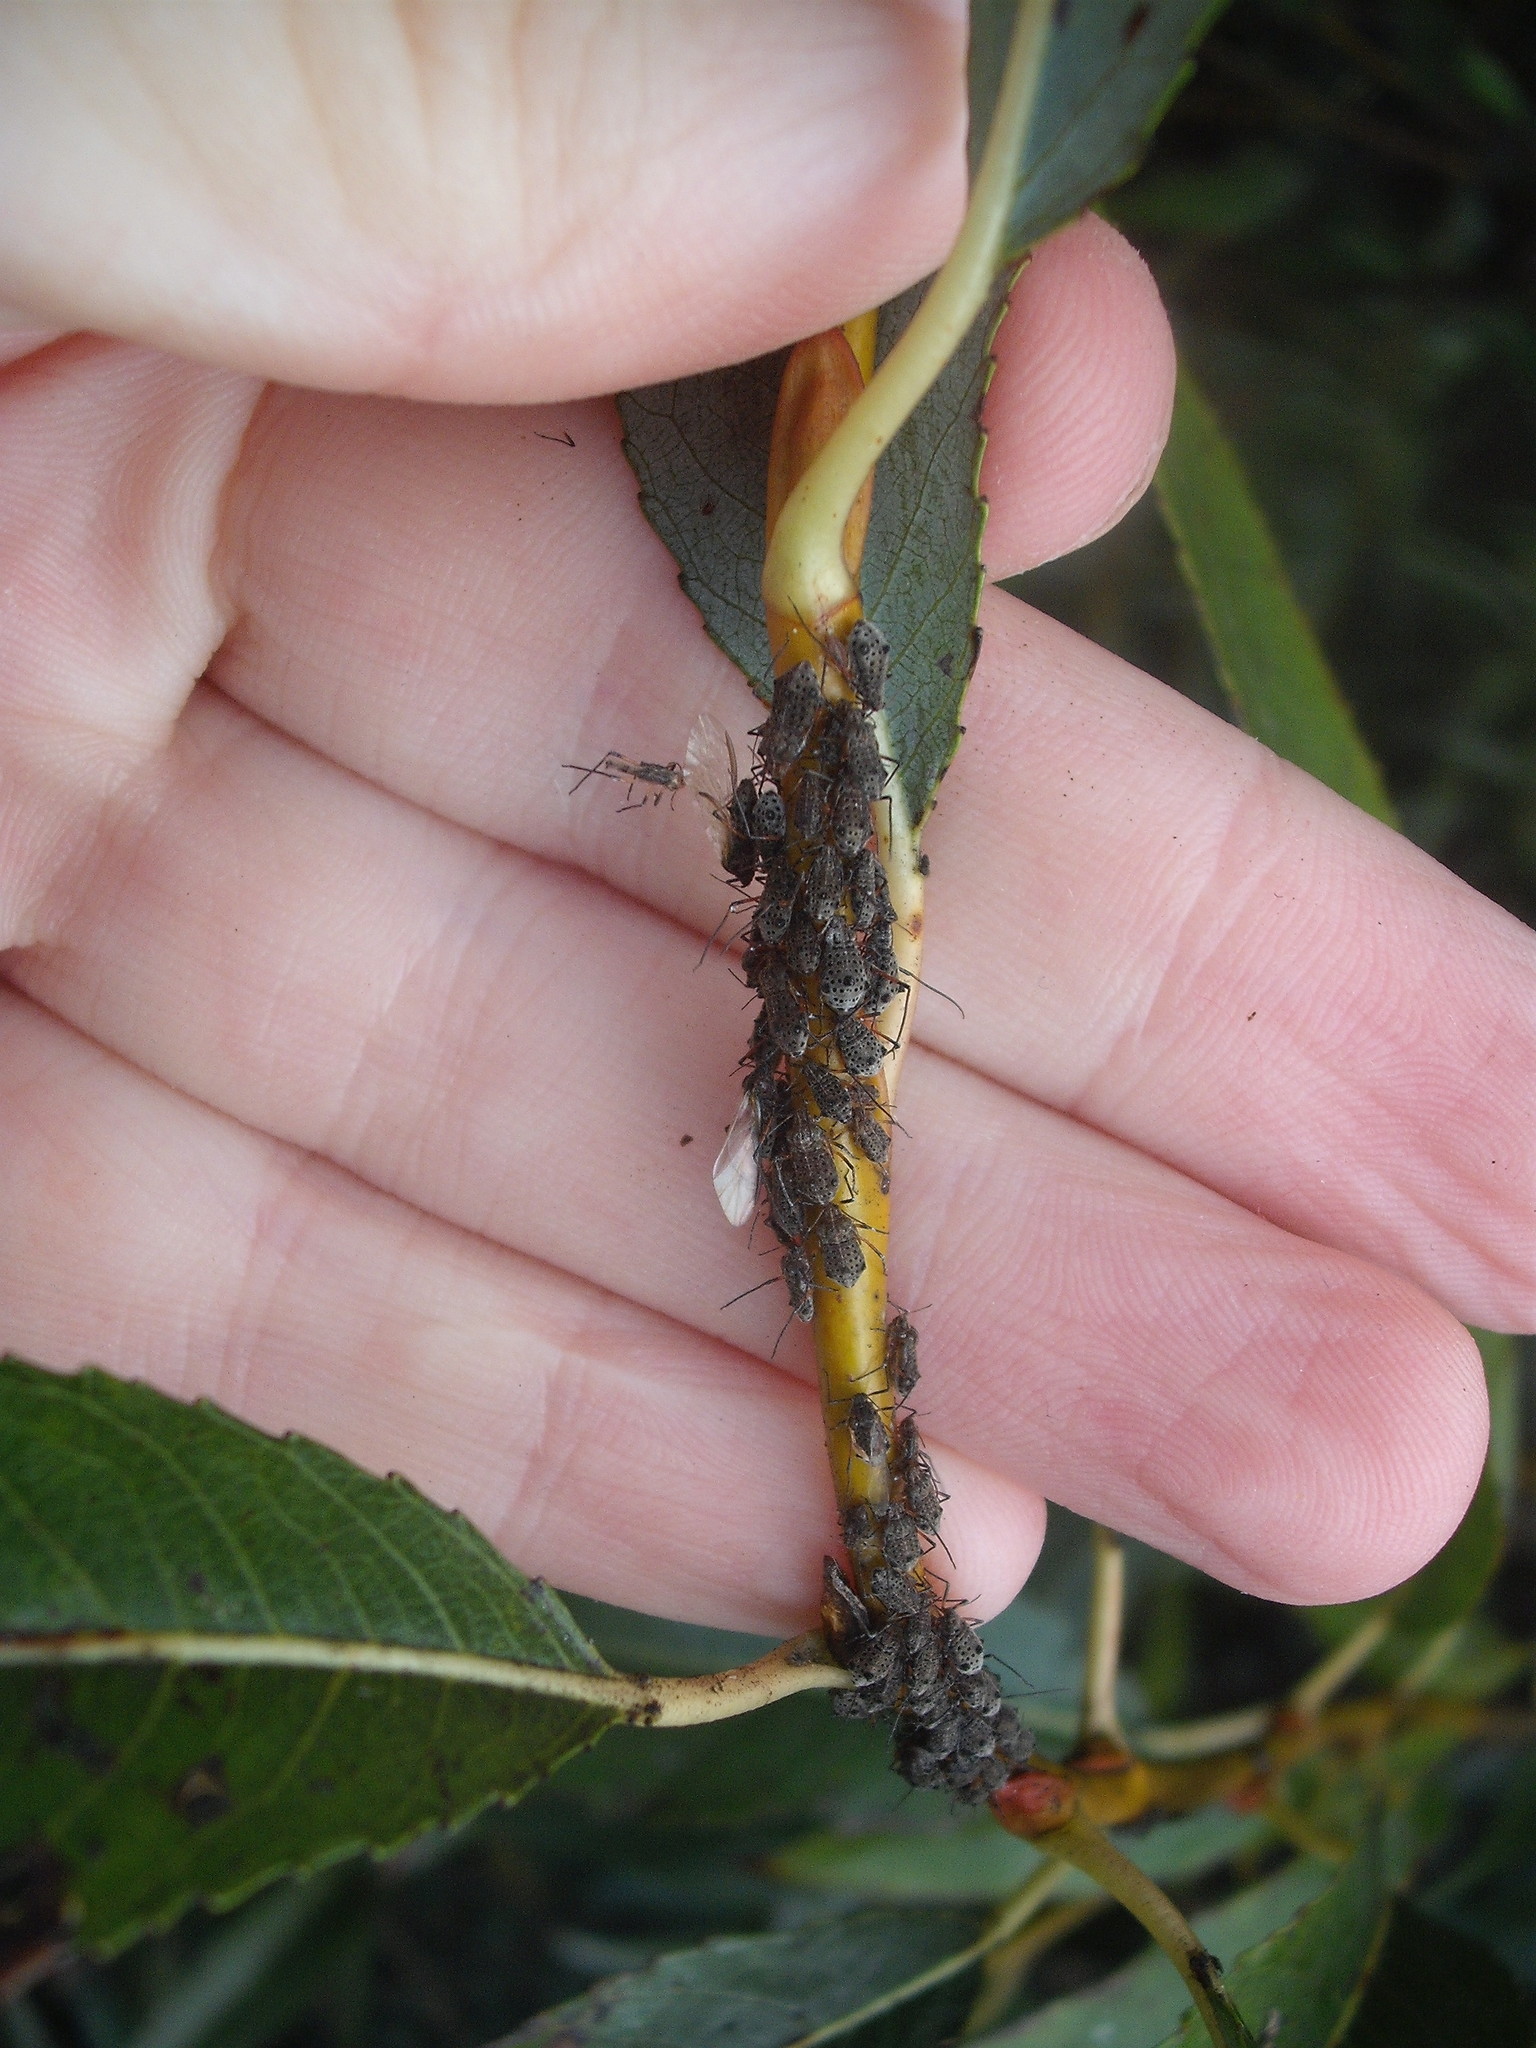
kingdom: Animalia
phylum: Arthropoda
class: Insecta
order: Hemiptera
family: Aphididae
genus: Tuberolachnus
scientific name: Tuberolachnus salignus
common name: Giant willow aphid
